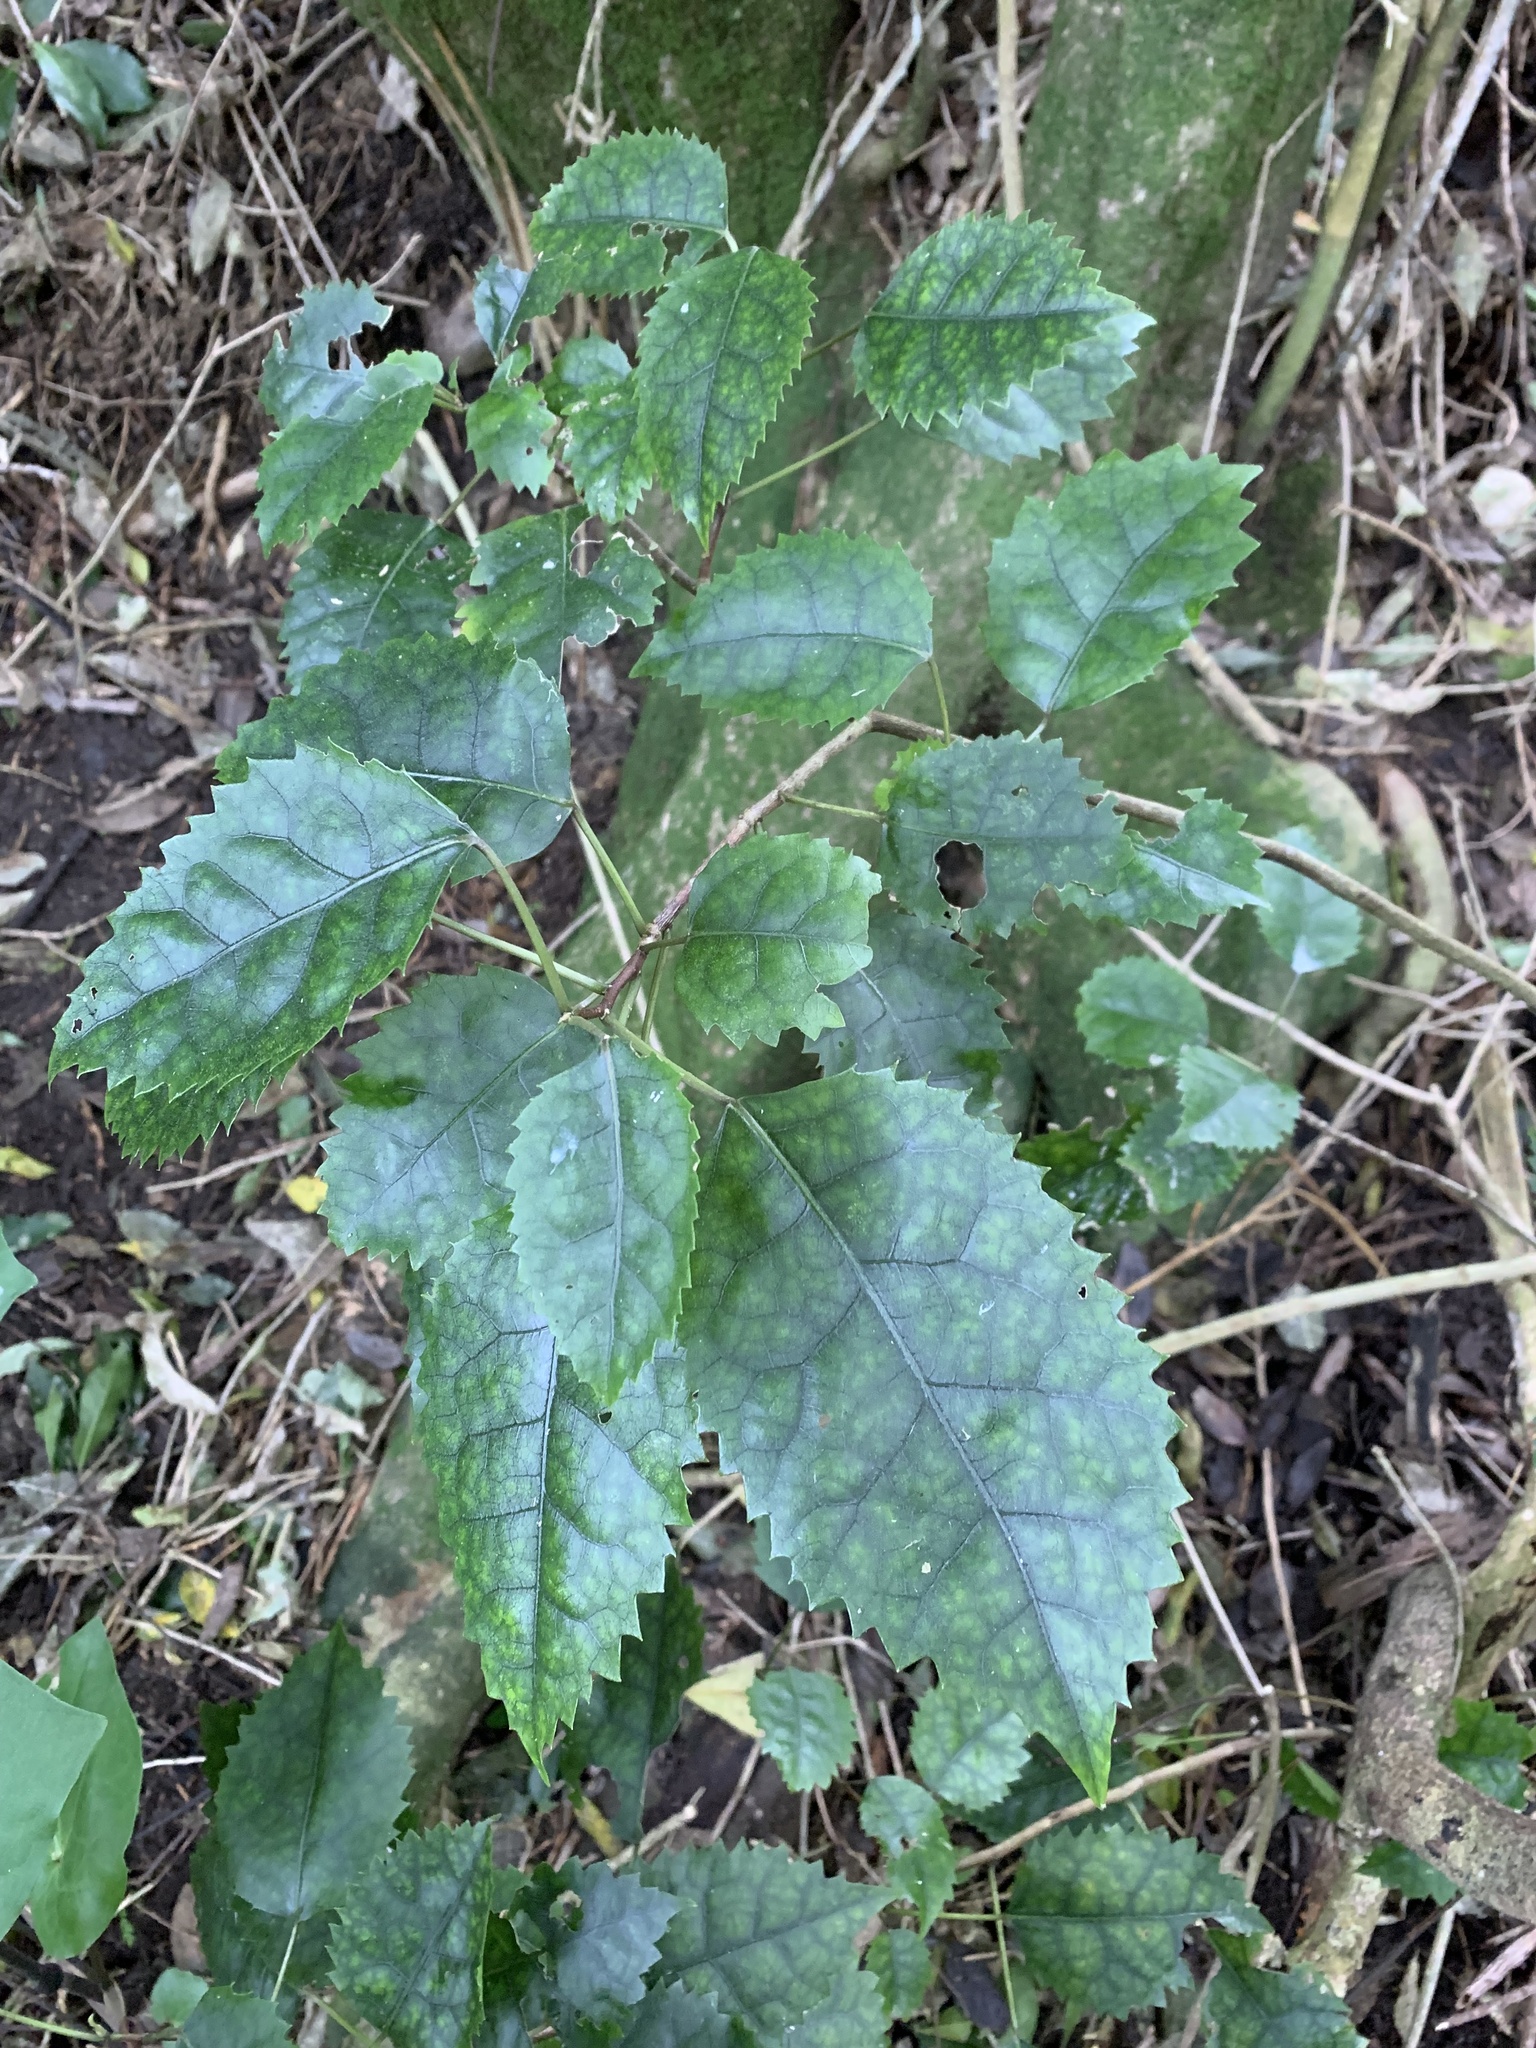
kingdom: Plantae
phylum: Tracheophyta
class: Magnoliopsida
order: Malvales
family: Malvaceae
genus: Hoheria
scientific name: Hoheria populnea
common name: Lacebark
